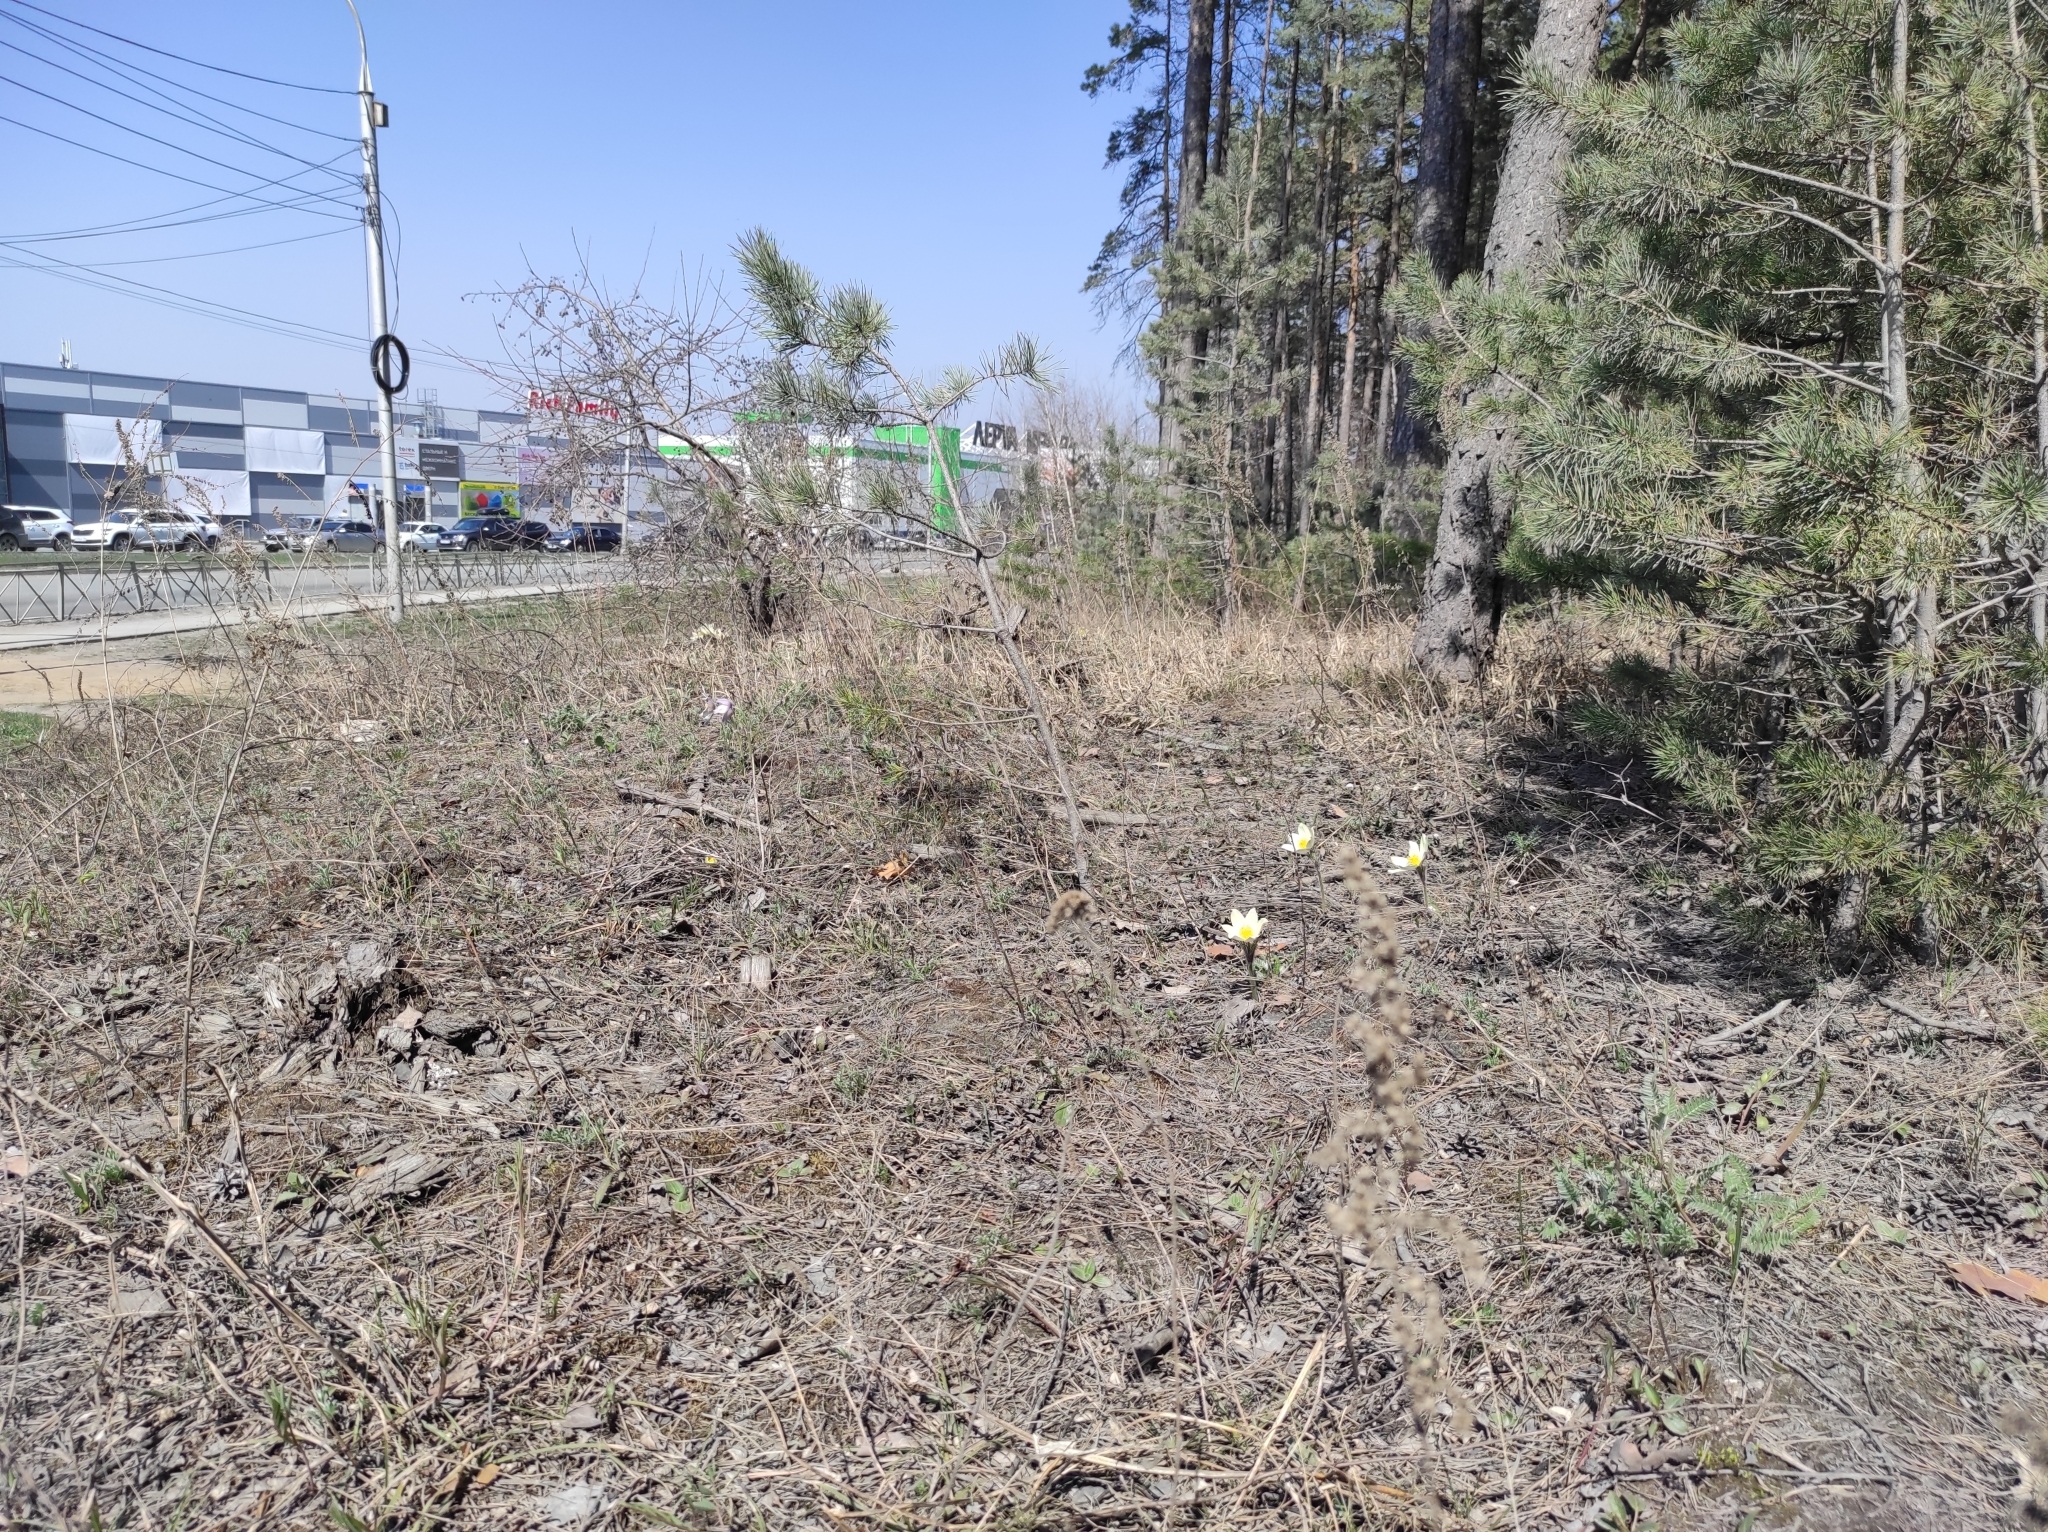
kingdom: Plantae
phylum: Tracheophyta
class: Magnoliopsida
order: Ranunculales
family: Ranunculaceae
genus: Pulsatilla
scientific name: Pulsatilla patens
